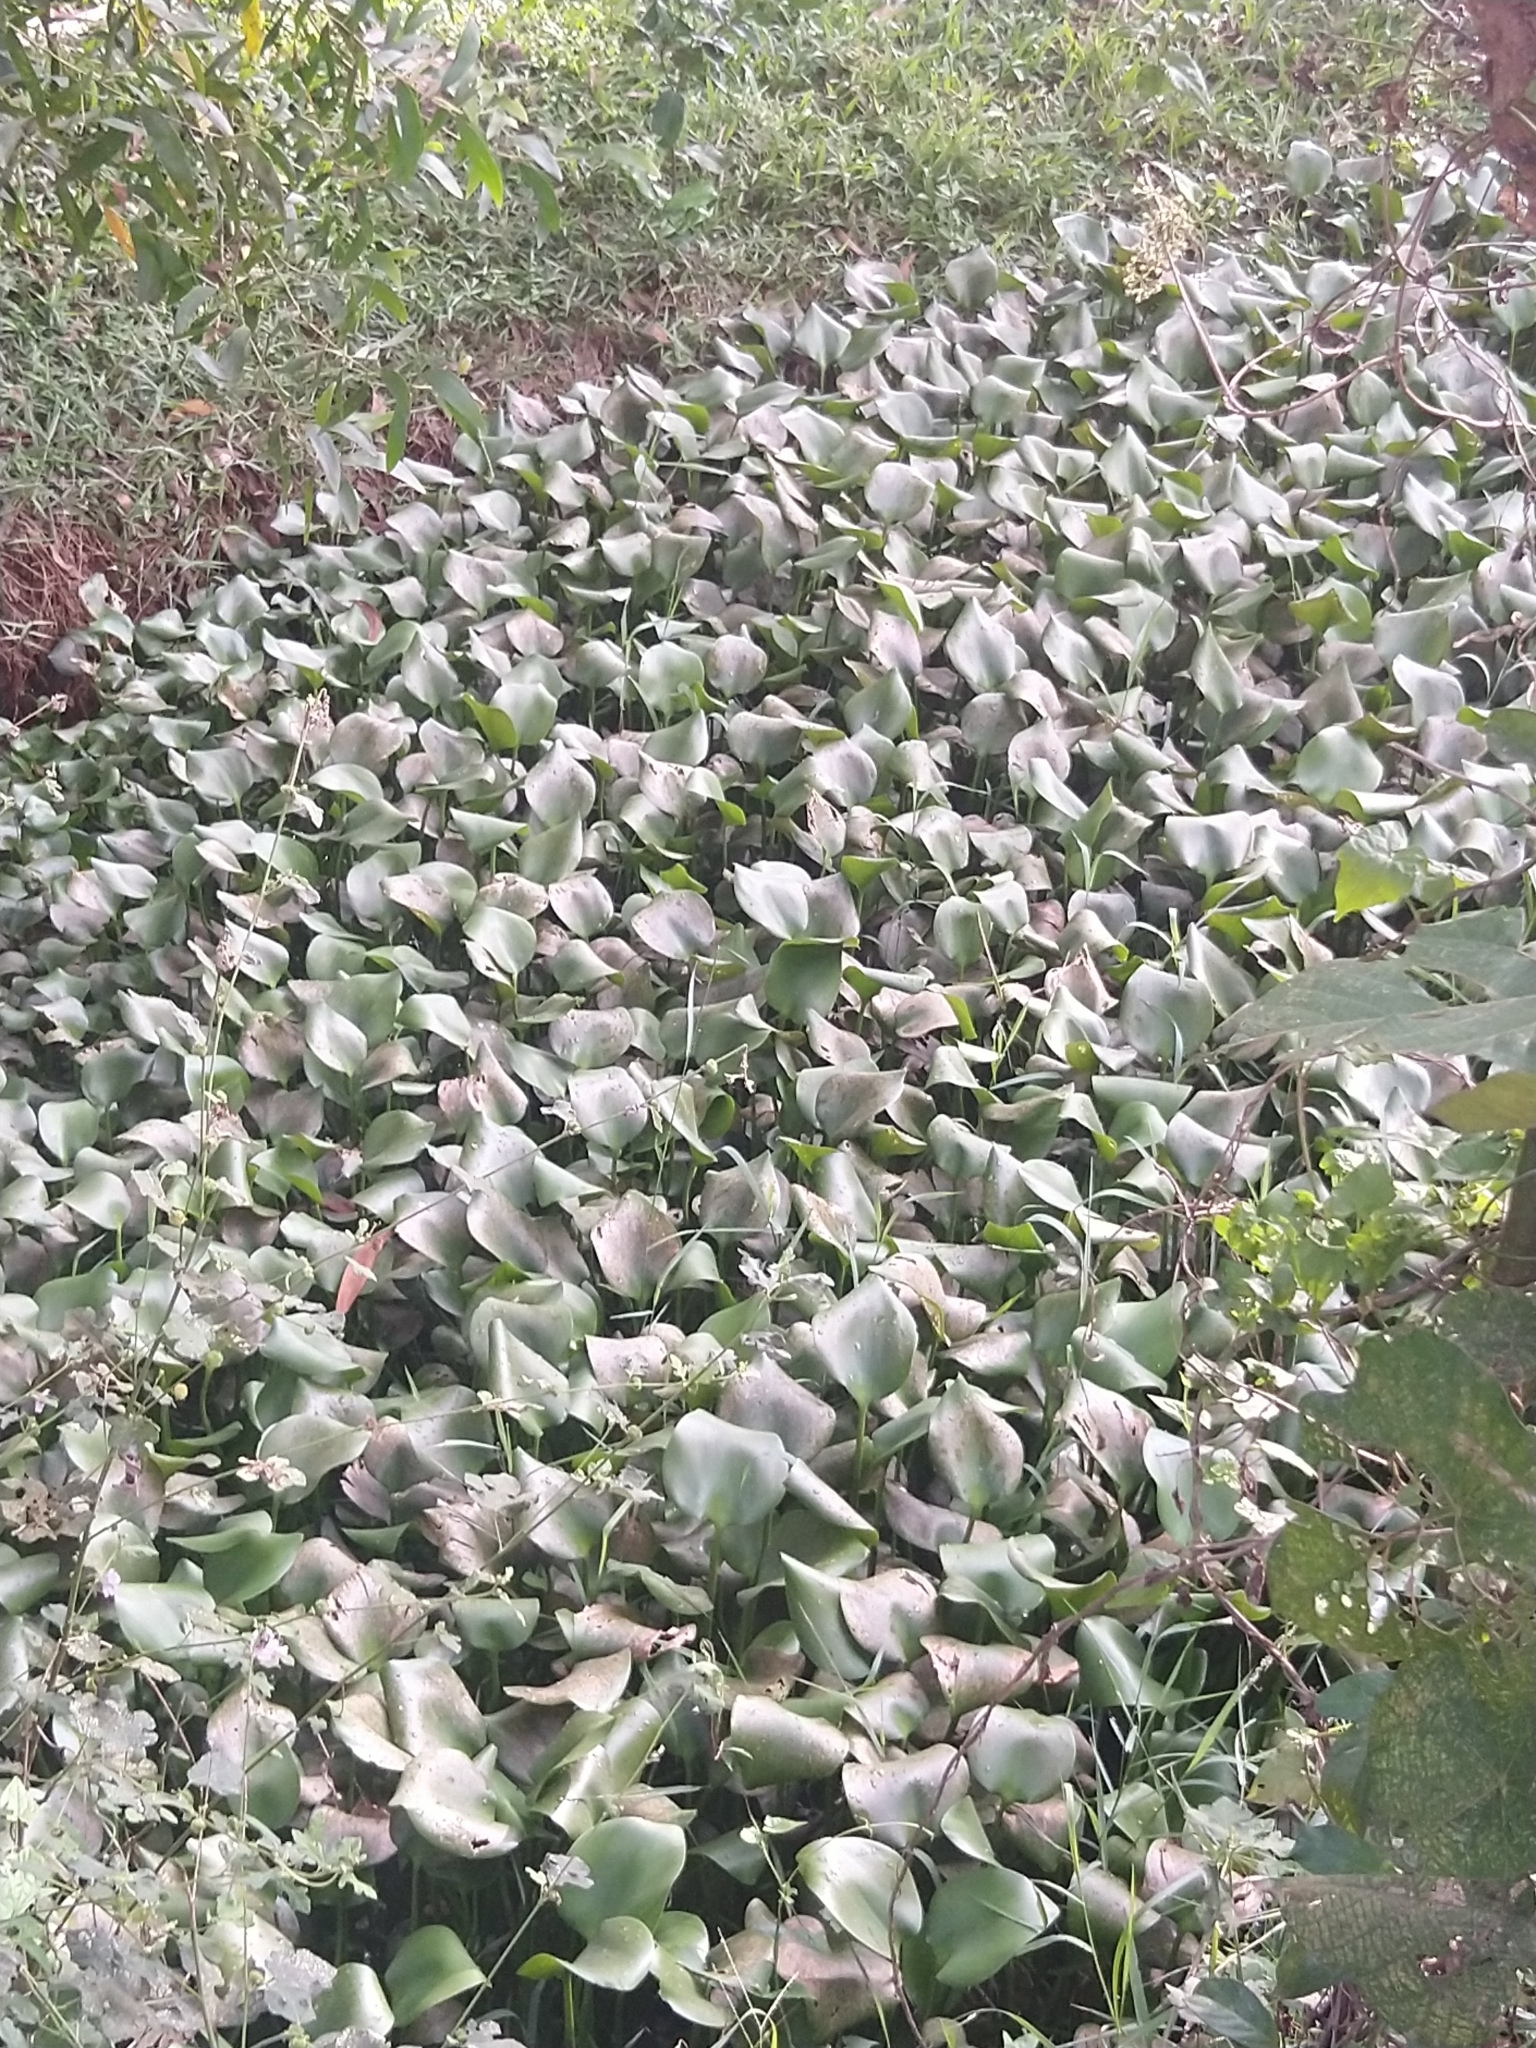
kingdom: Plantae
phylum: Tracheophyta
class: Liliopsida
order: Commelinales
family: Pontederiaceae
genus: Pontederia
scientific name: Pontederia crassipes
